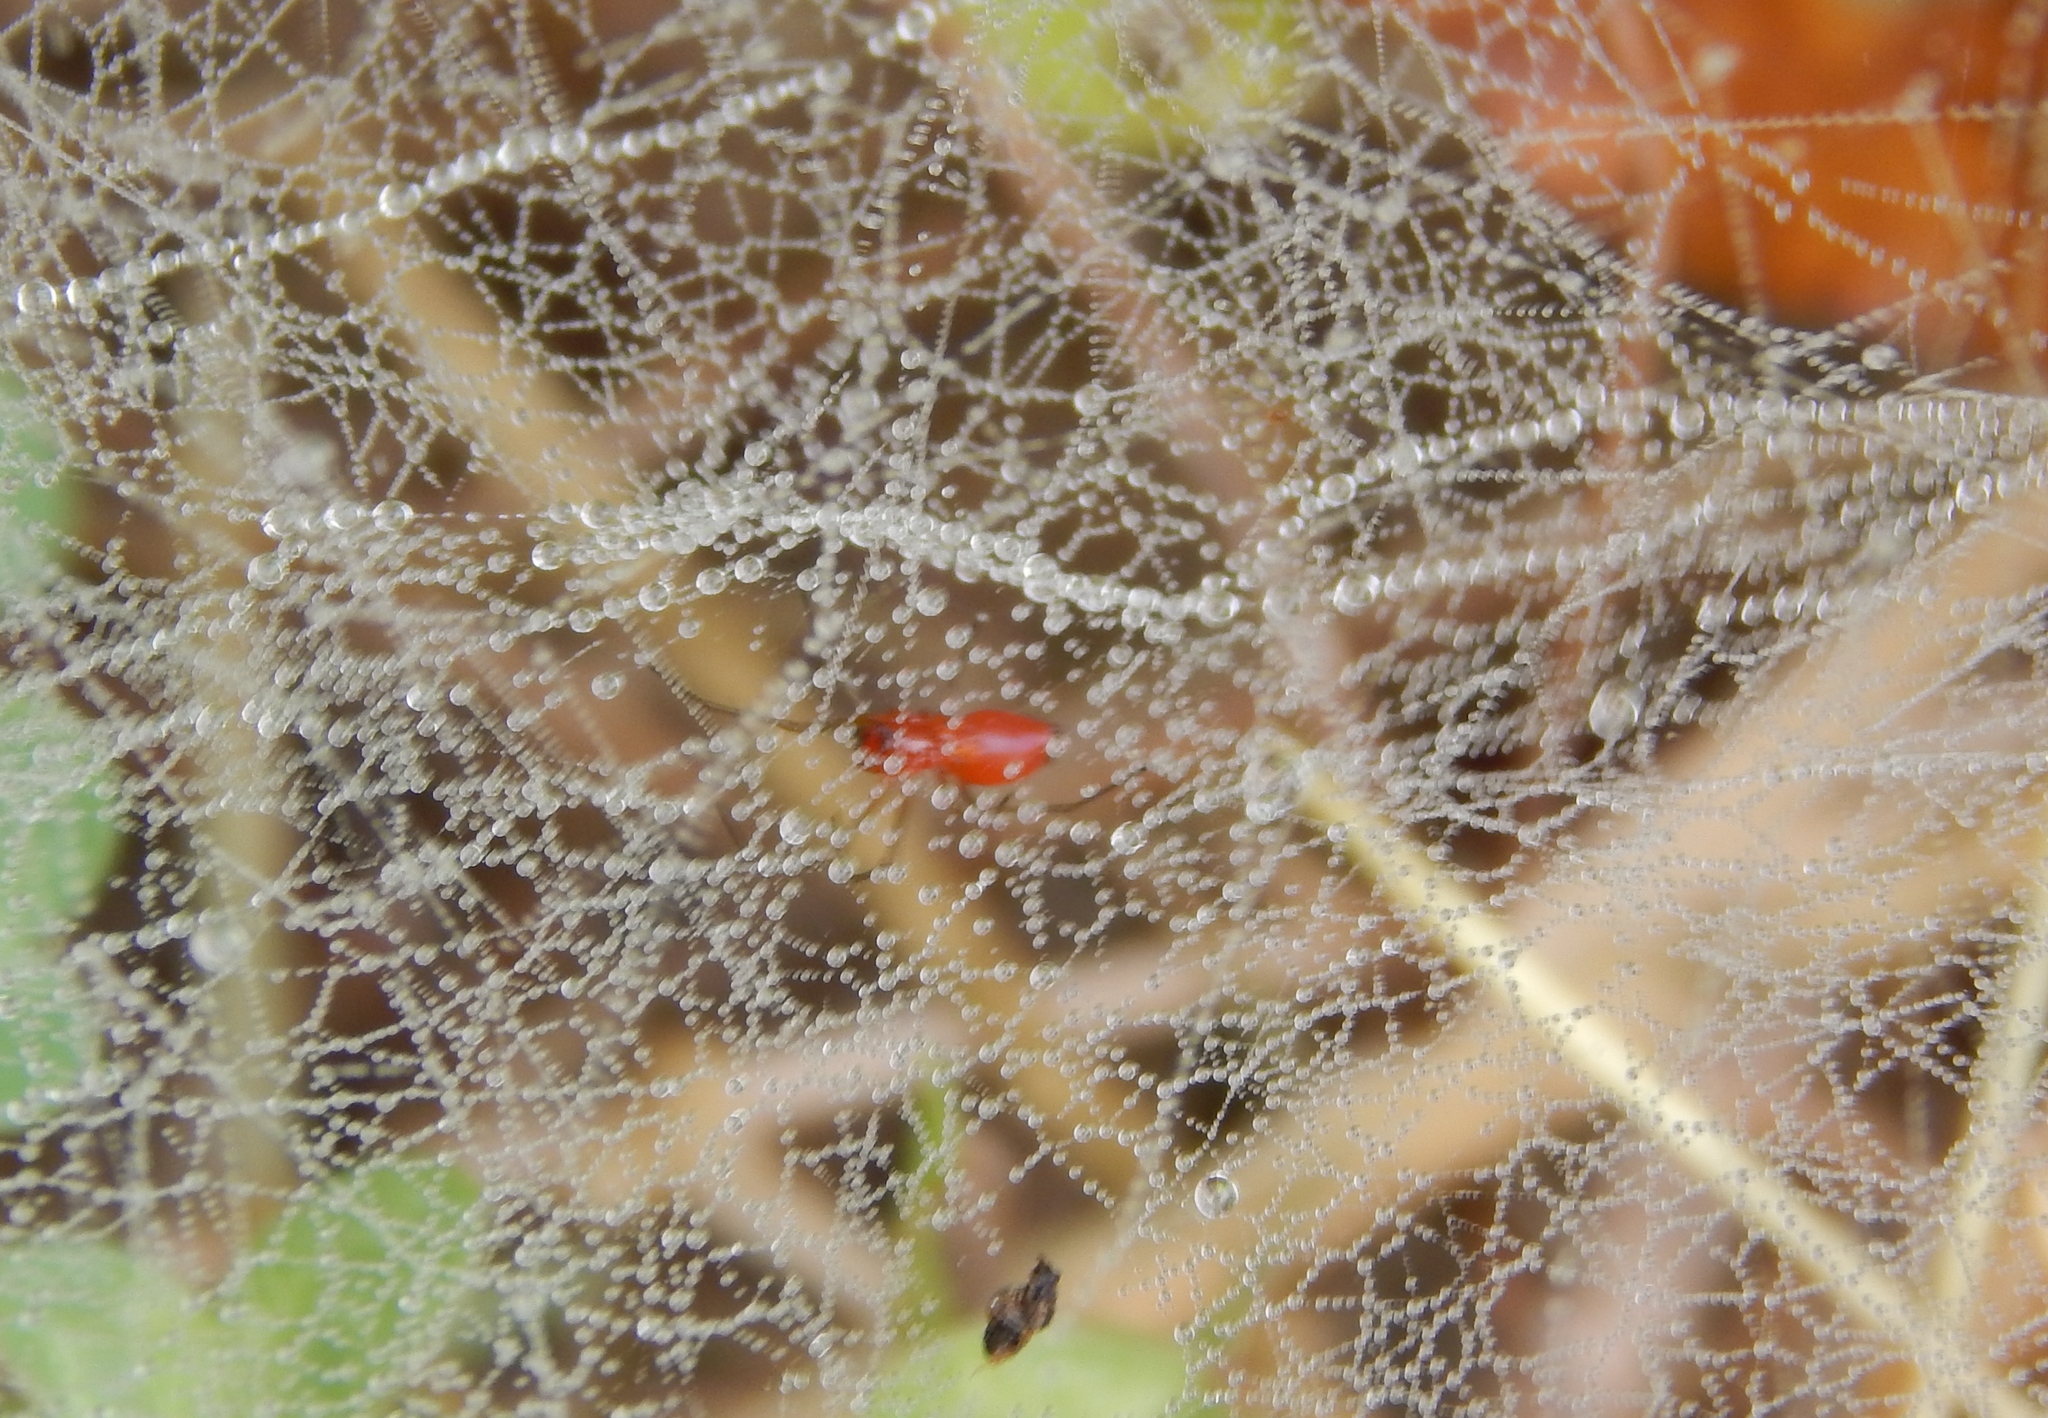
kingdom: Animalia
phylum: Arthropoda
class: Arachnida
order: Araneae
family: Linyphiidae
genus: Florinda
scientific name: Florinda coccinea
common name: Black-tailed red sheetweaver
